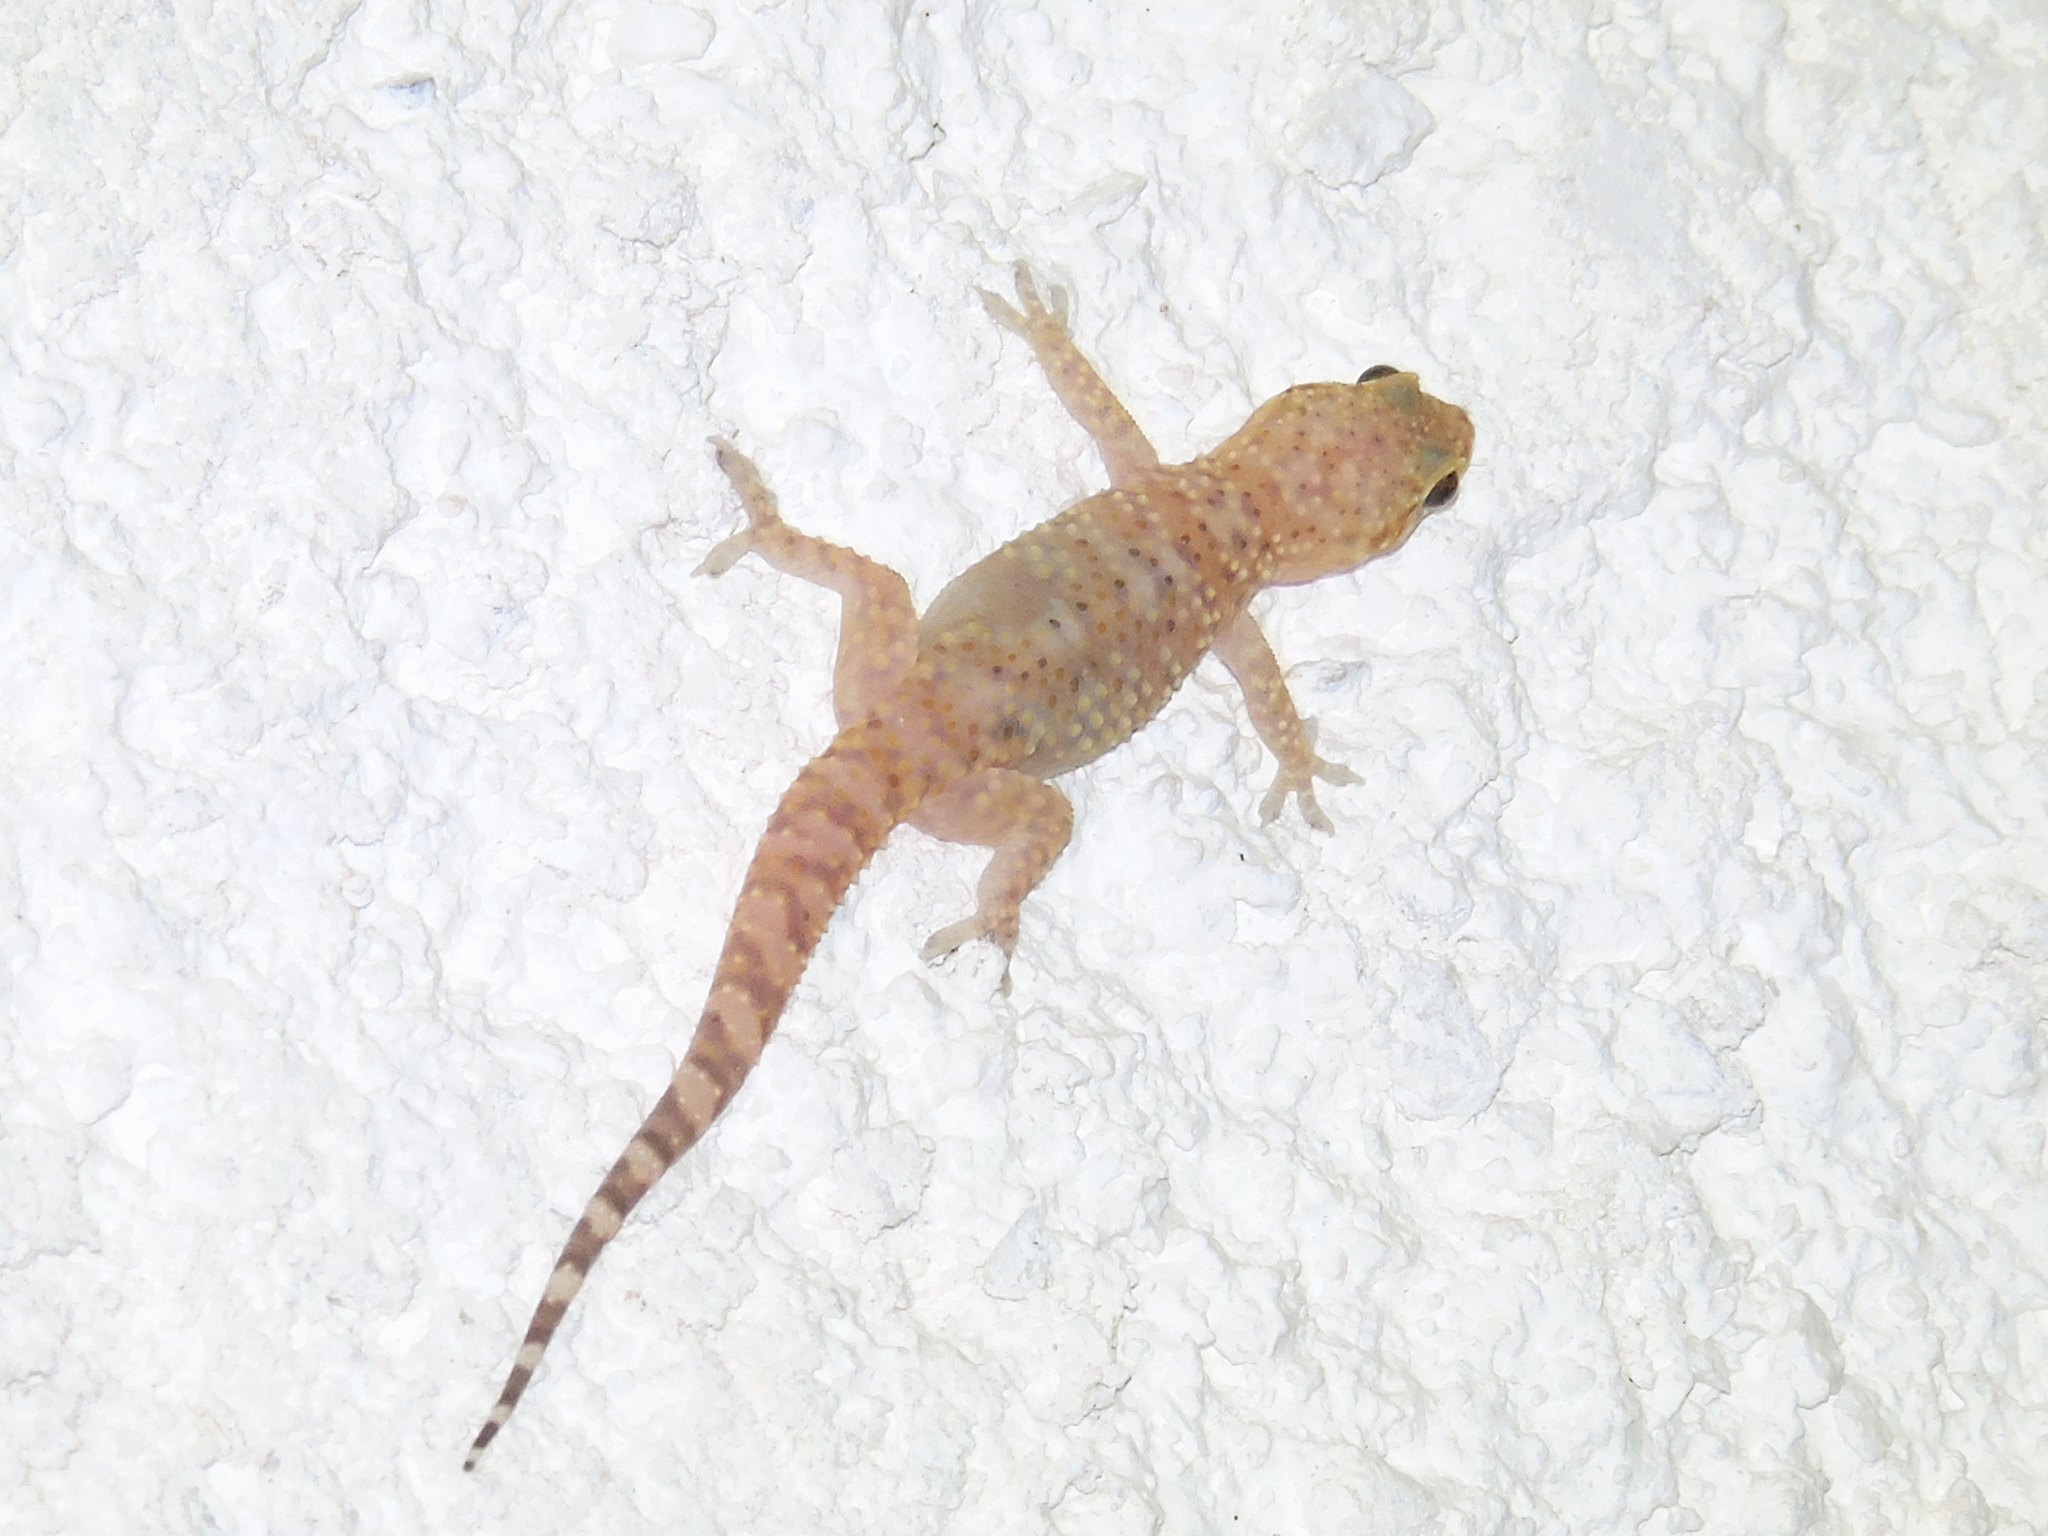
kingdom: Animalia
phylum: Chordata
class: Squamata
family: Gekkonidae
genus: Hemidactylus
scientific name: Hemidactylus turcicus
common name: Turkish gecko
